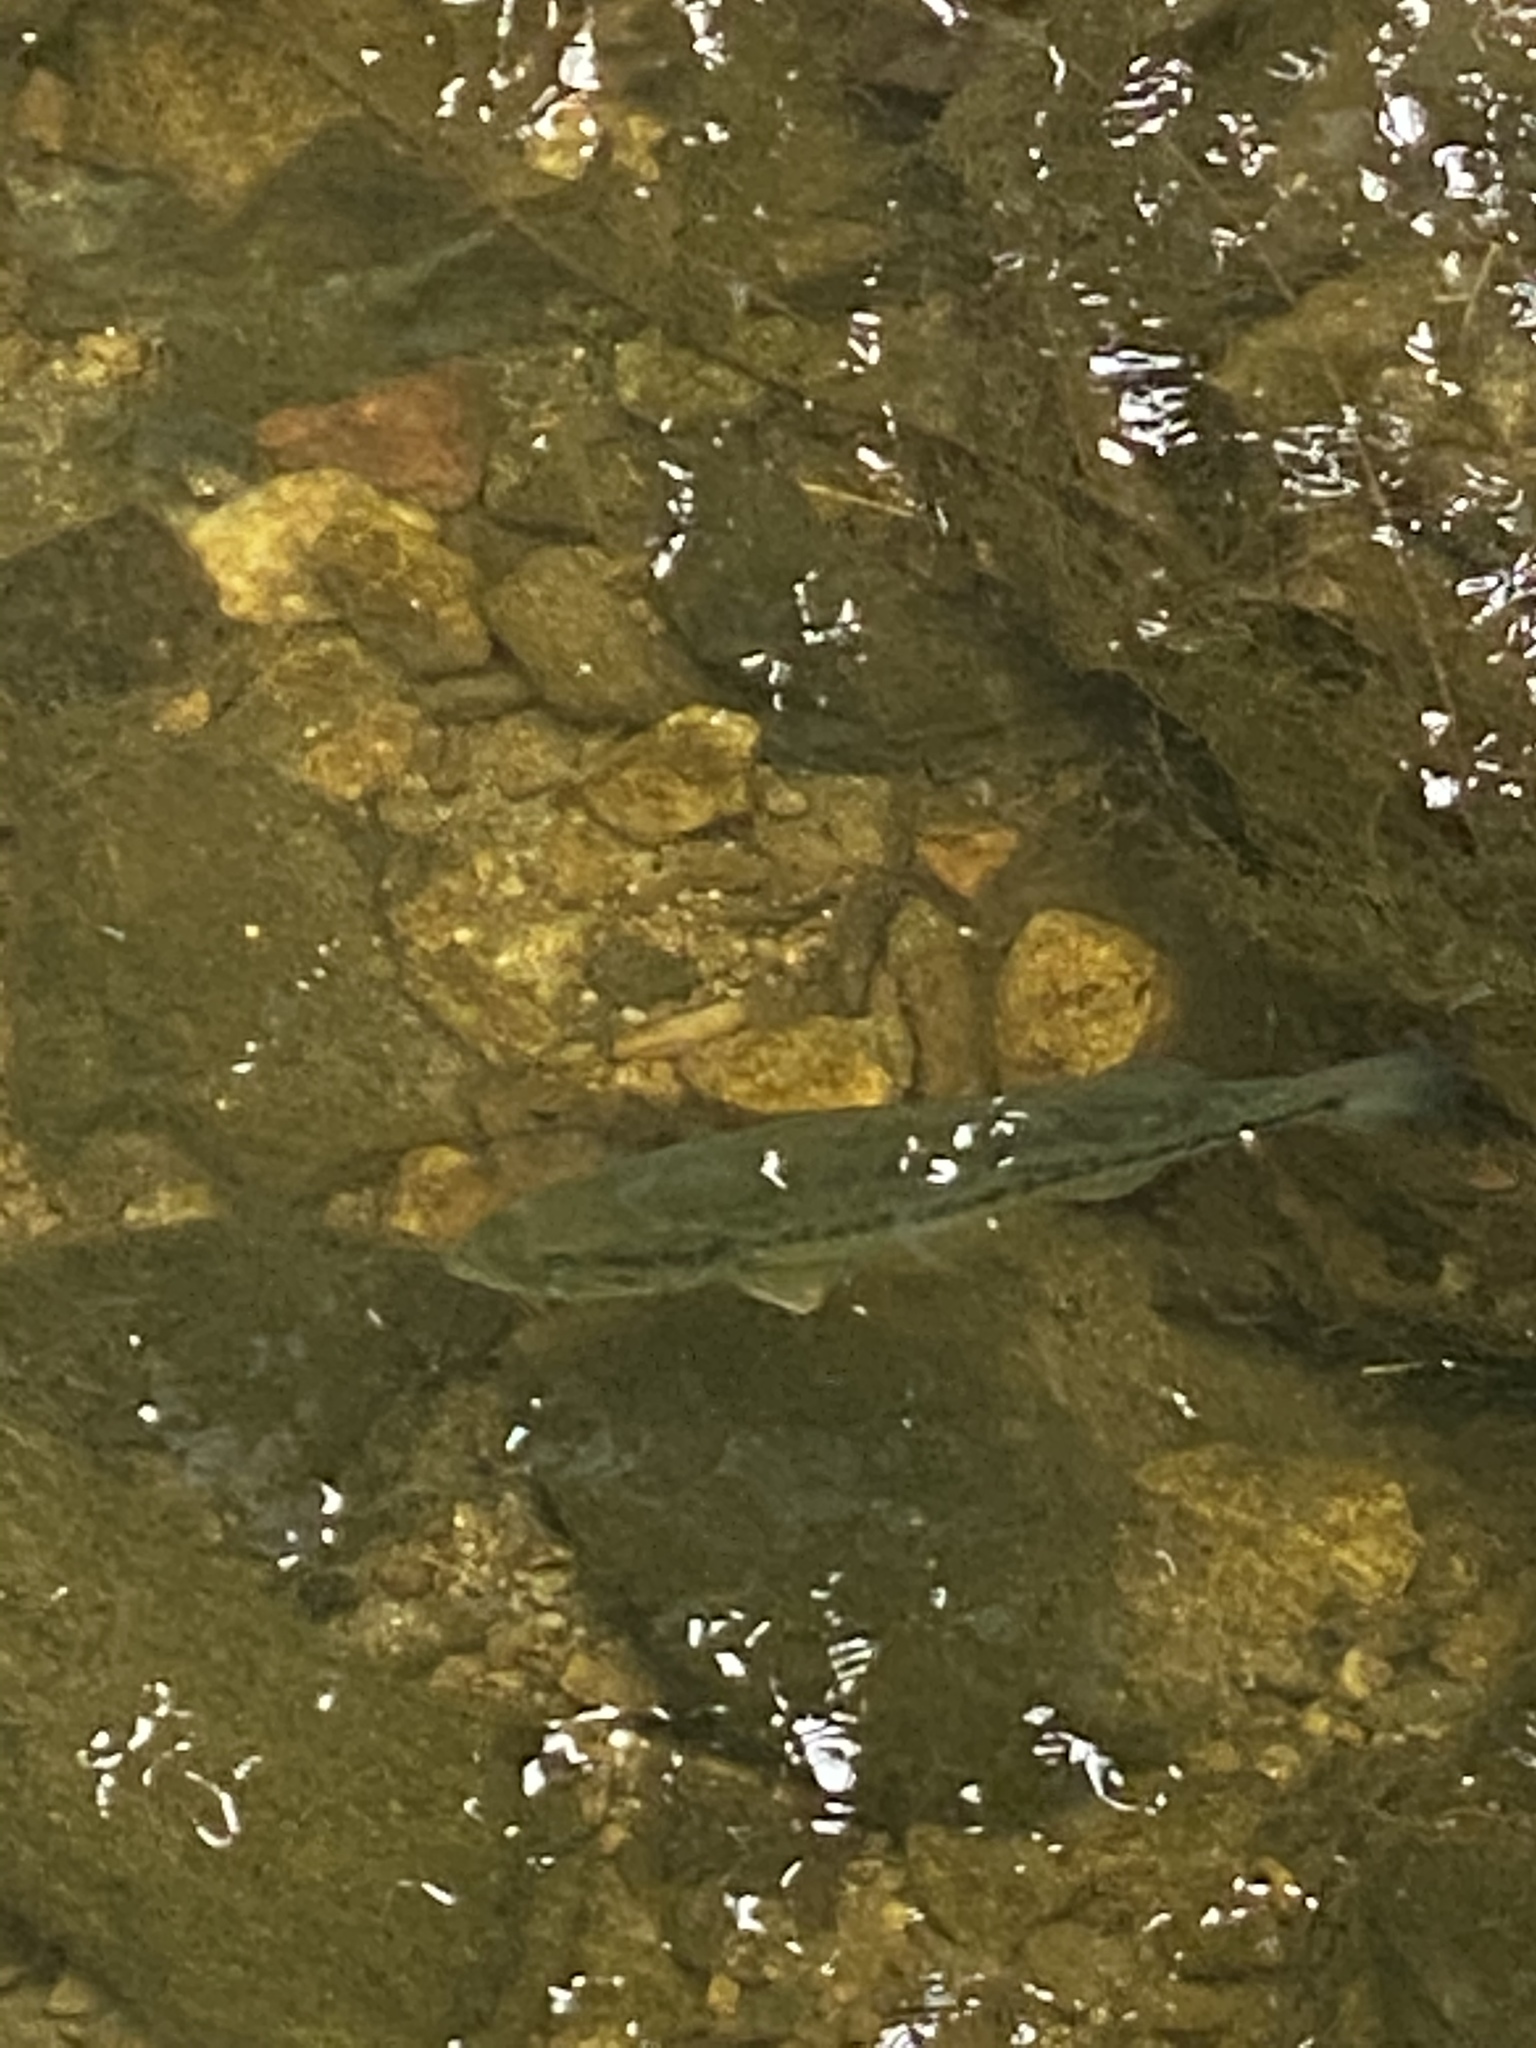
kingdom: Animalia
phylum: Chordata
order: Perciformes
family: Centrarchidae
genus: Micropterus
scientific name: Micropterus
